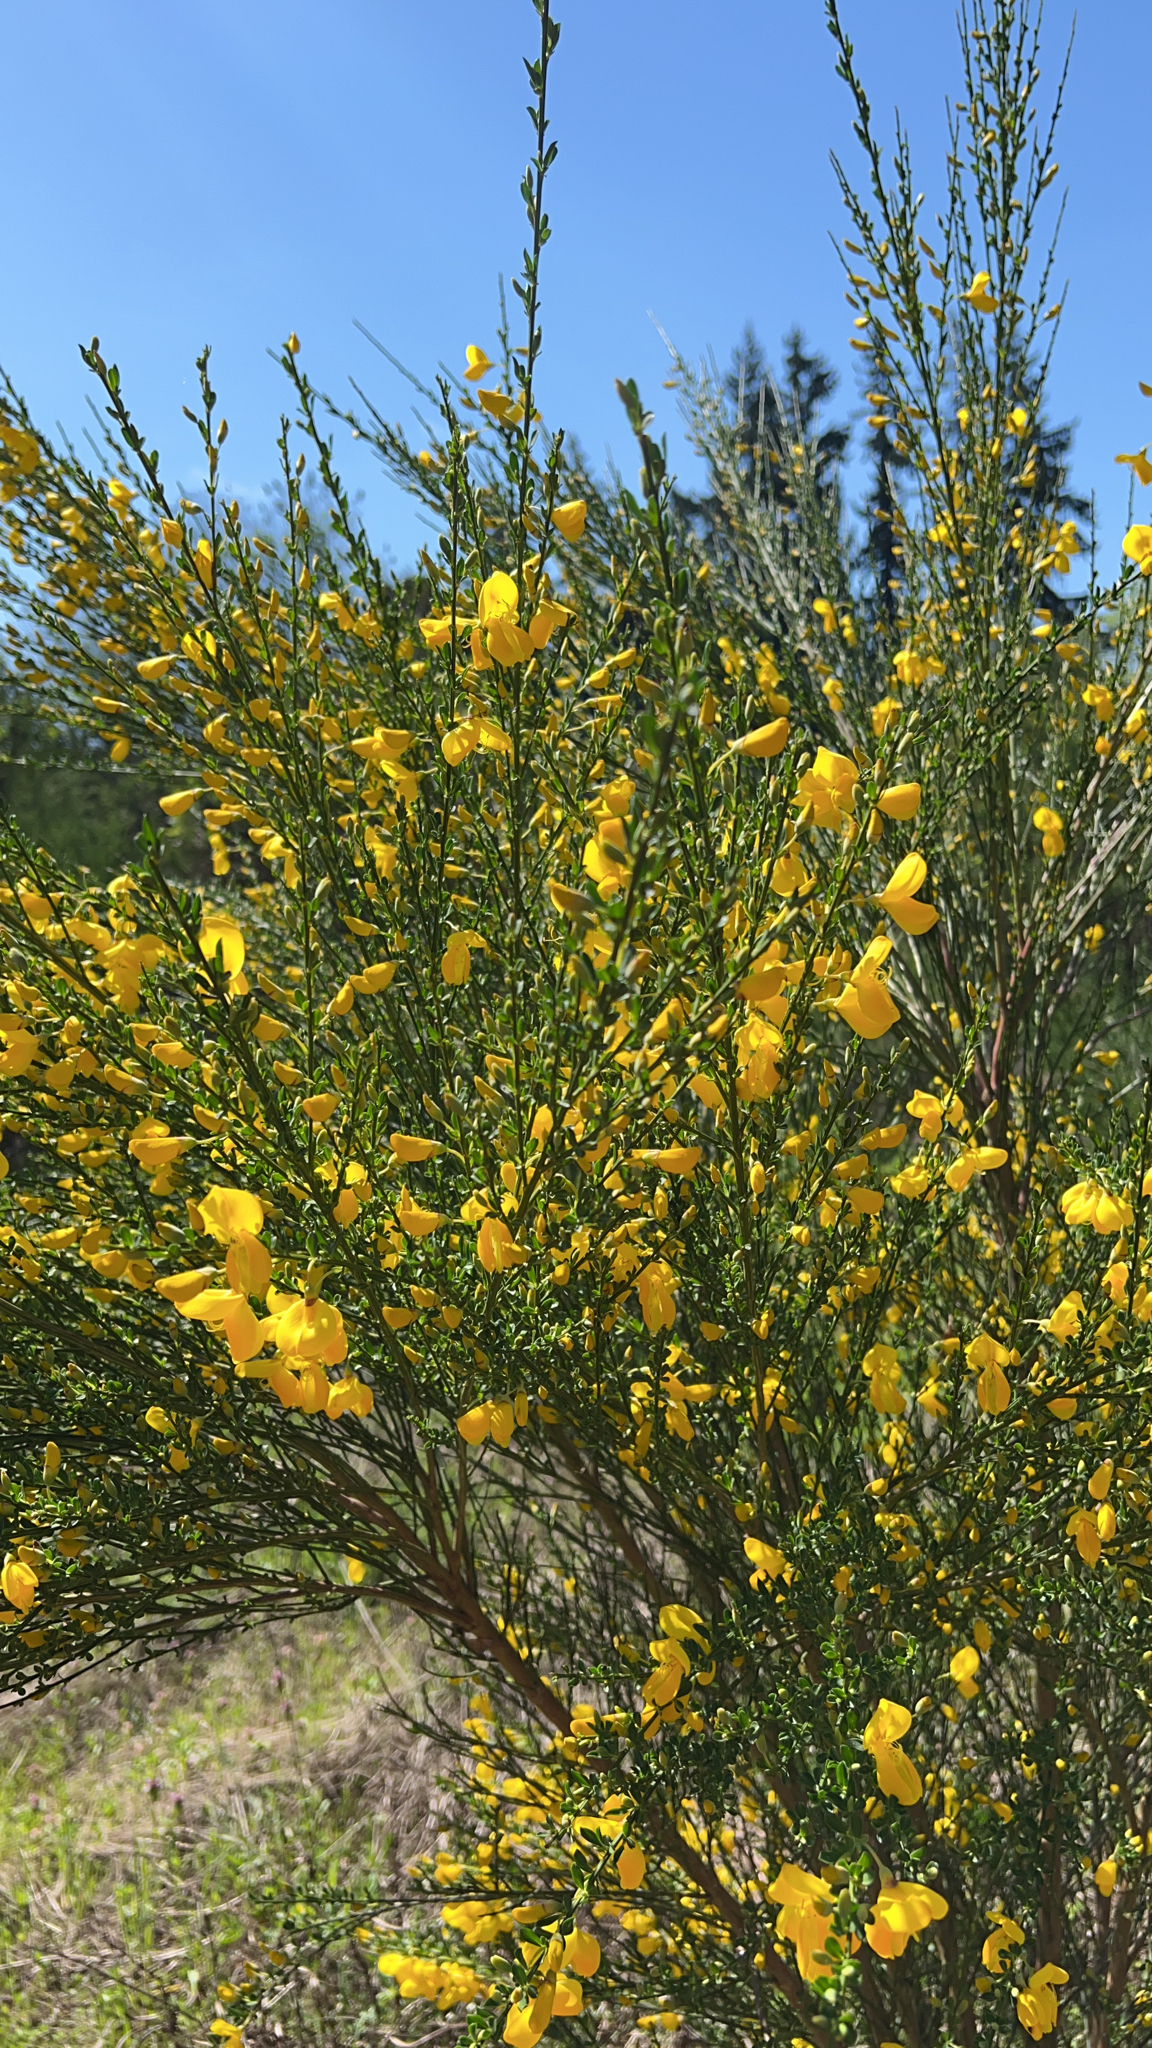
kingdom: Plantae
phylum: Tracheophyta
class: Magnoliopsida
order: Fabales
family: Fabaceae
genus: Cytisus
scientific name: Cytisus scoparius
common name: Scotch broom
